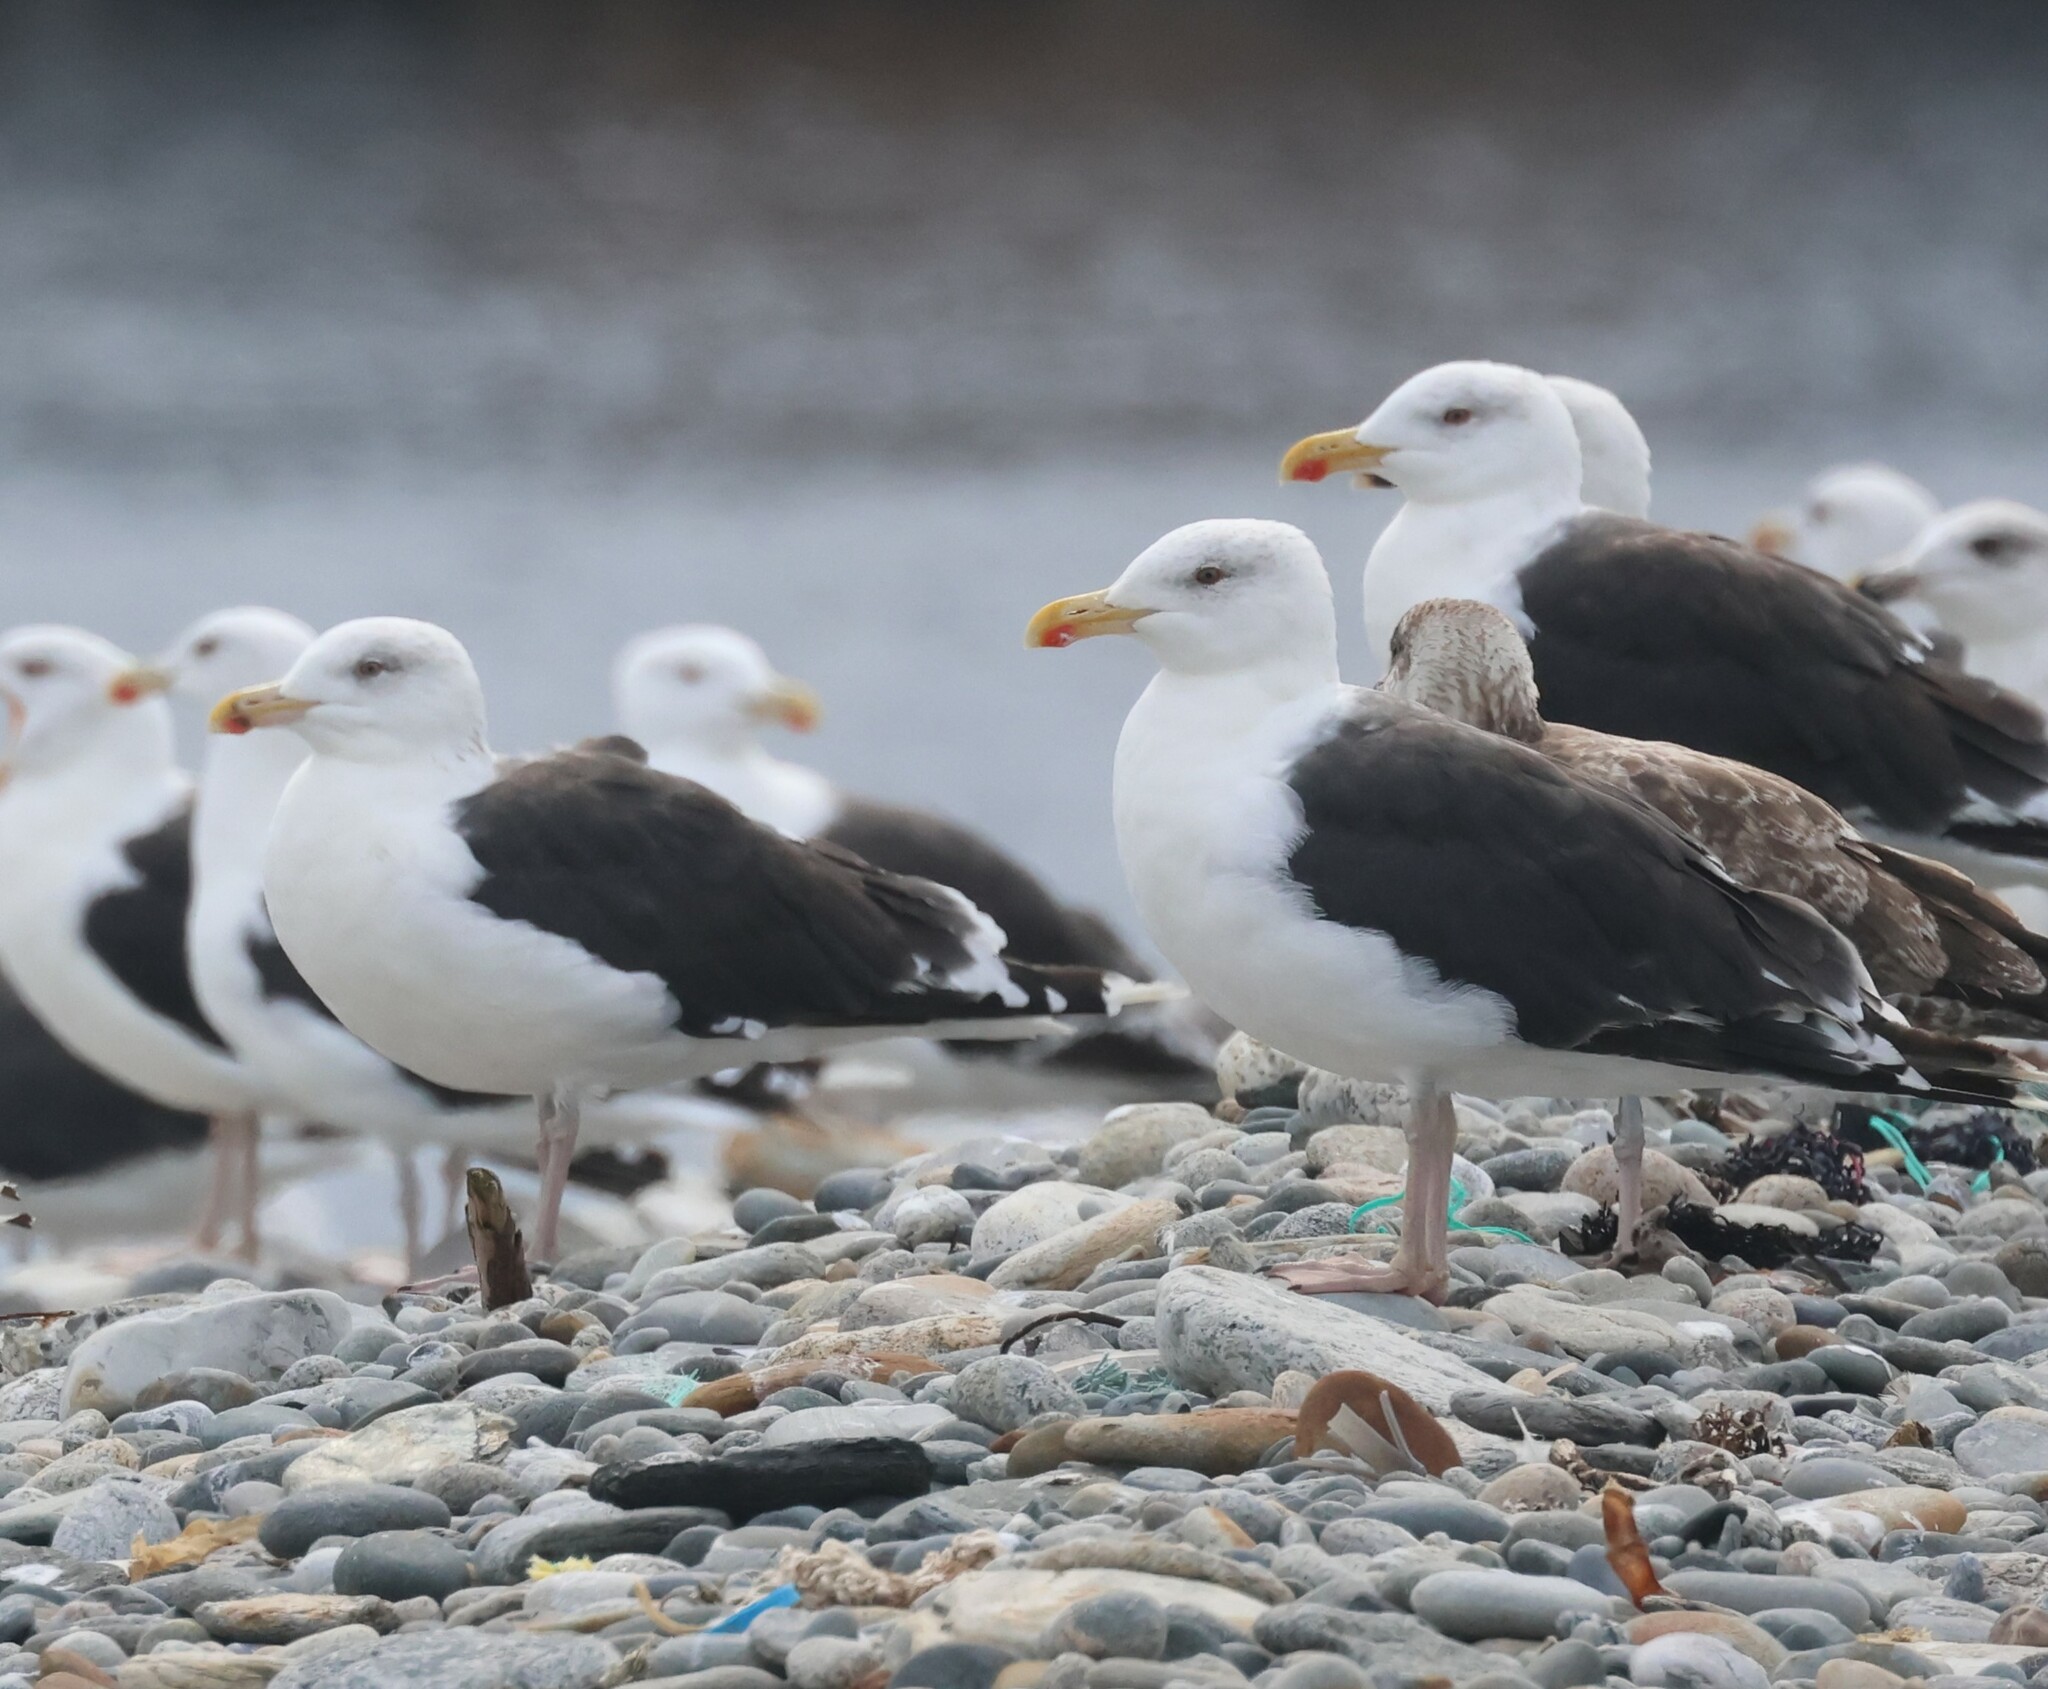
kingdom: Animalia
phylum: Chordata
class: Aves
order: Charadriiformes
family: Laridae
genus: Larus
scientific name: Larus marinus
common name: Great black-backed gull
